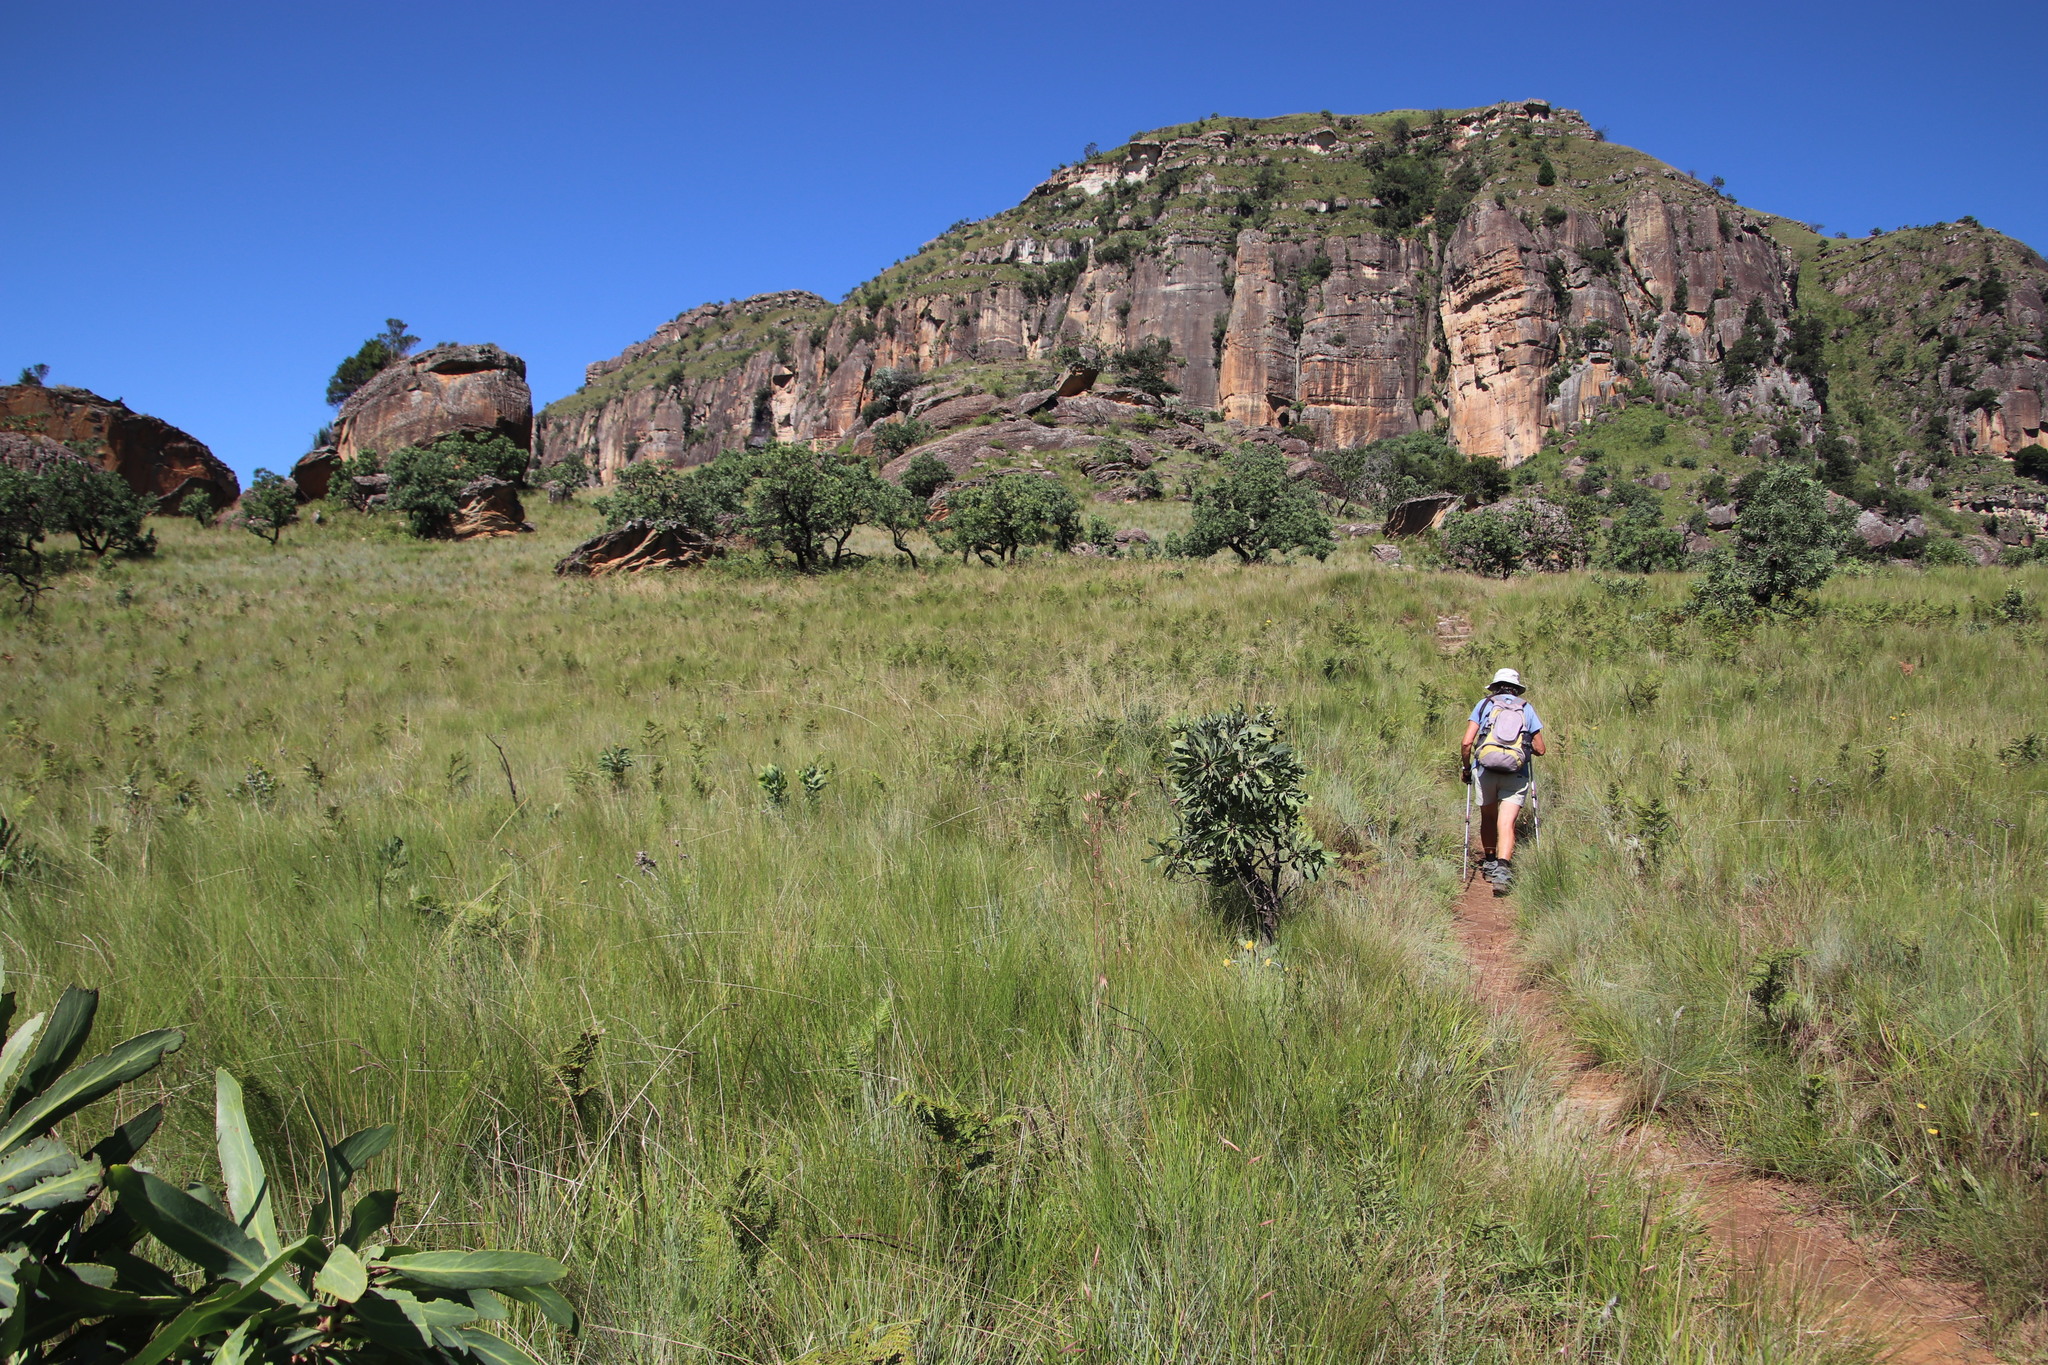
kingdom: Plantae
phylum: Tracheophyta
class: Polypodiopsida
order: Polypodiales
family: Dennstaedtiaceae
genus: Pteridium
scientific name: Pteridium aquilinum
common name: Bracken
